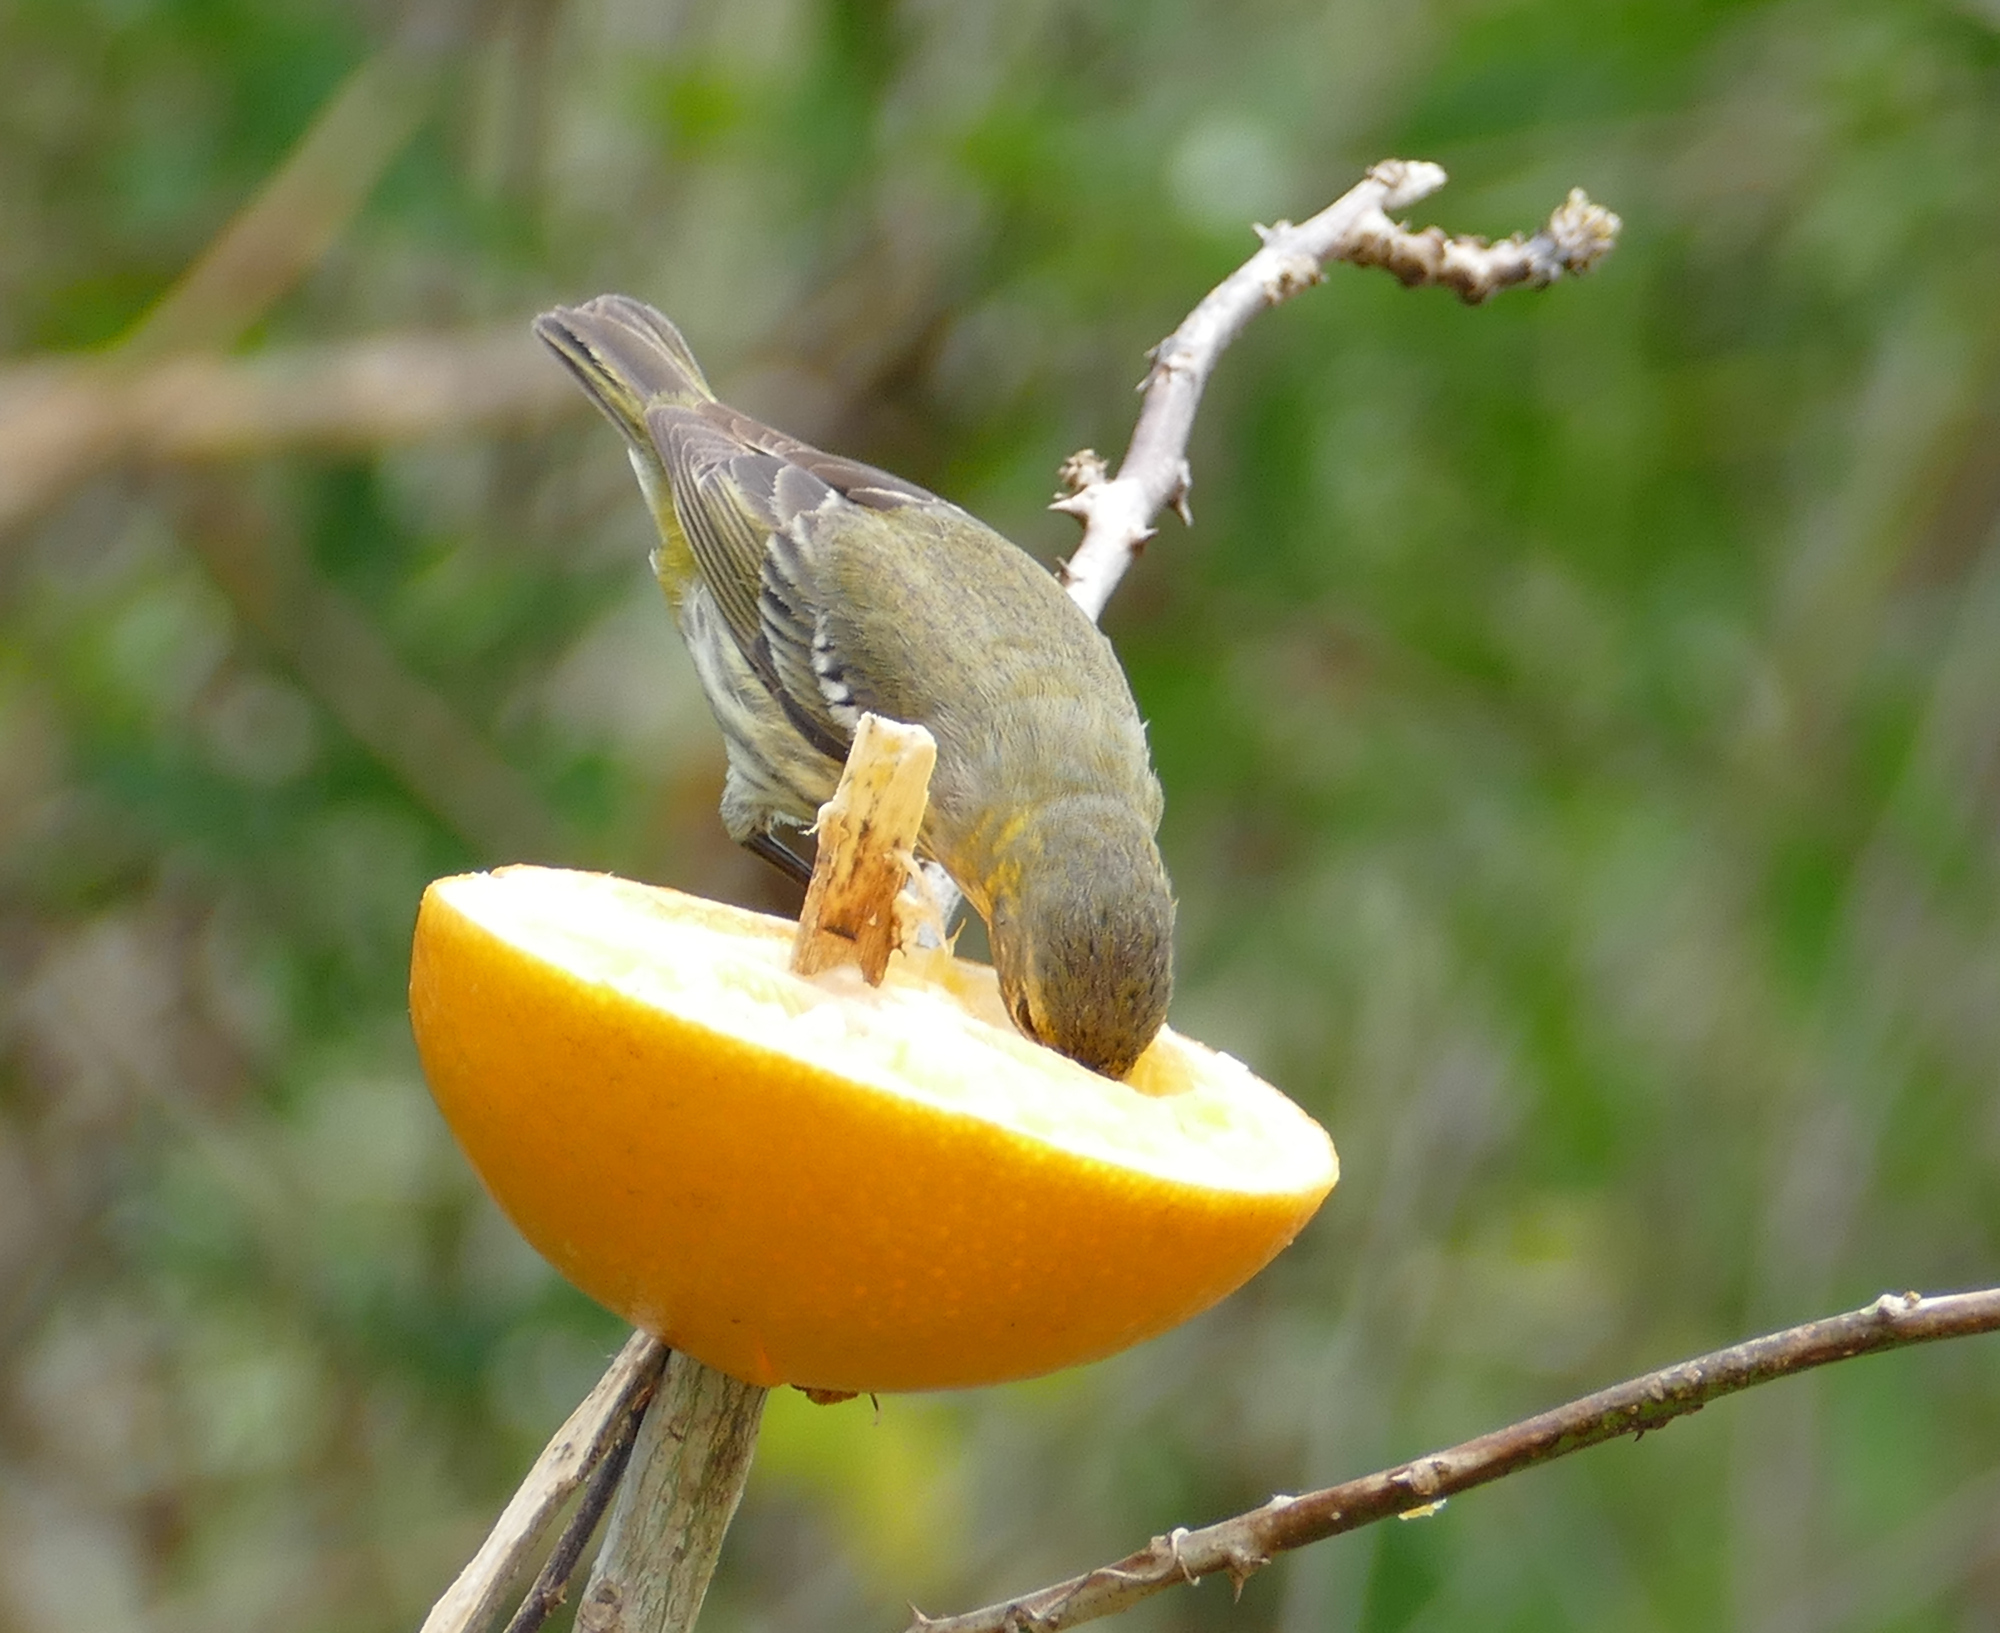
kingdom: Animalia
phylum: Chordata
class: Aves
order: Passeriformes
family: Parulidae
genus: Setophaga
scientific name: Setophaga tigrina
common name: Cape may warbler
